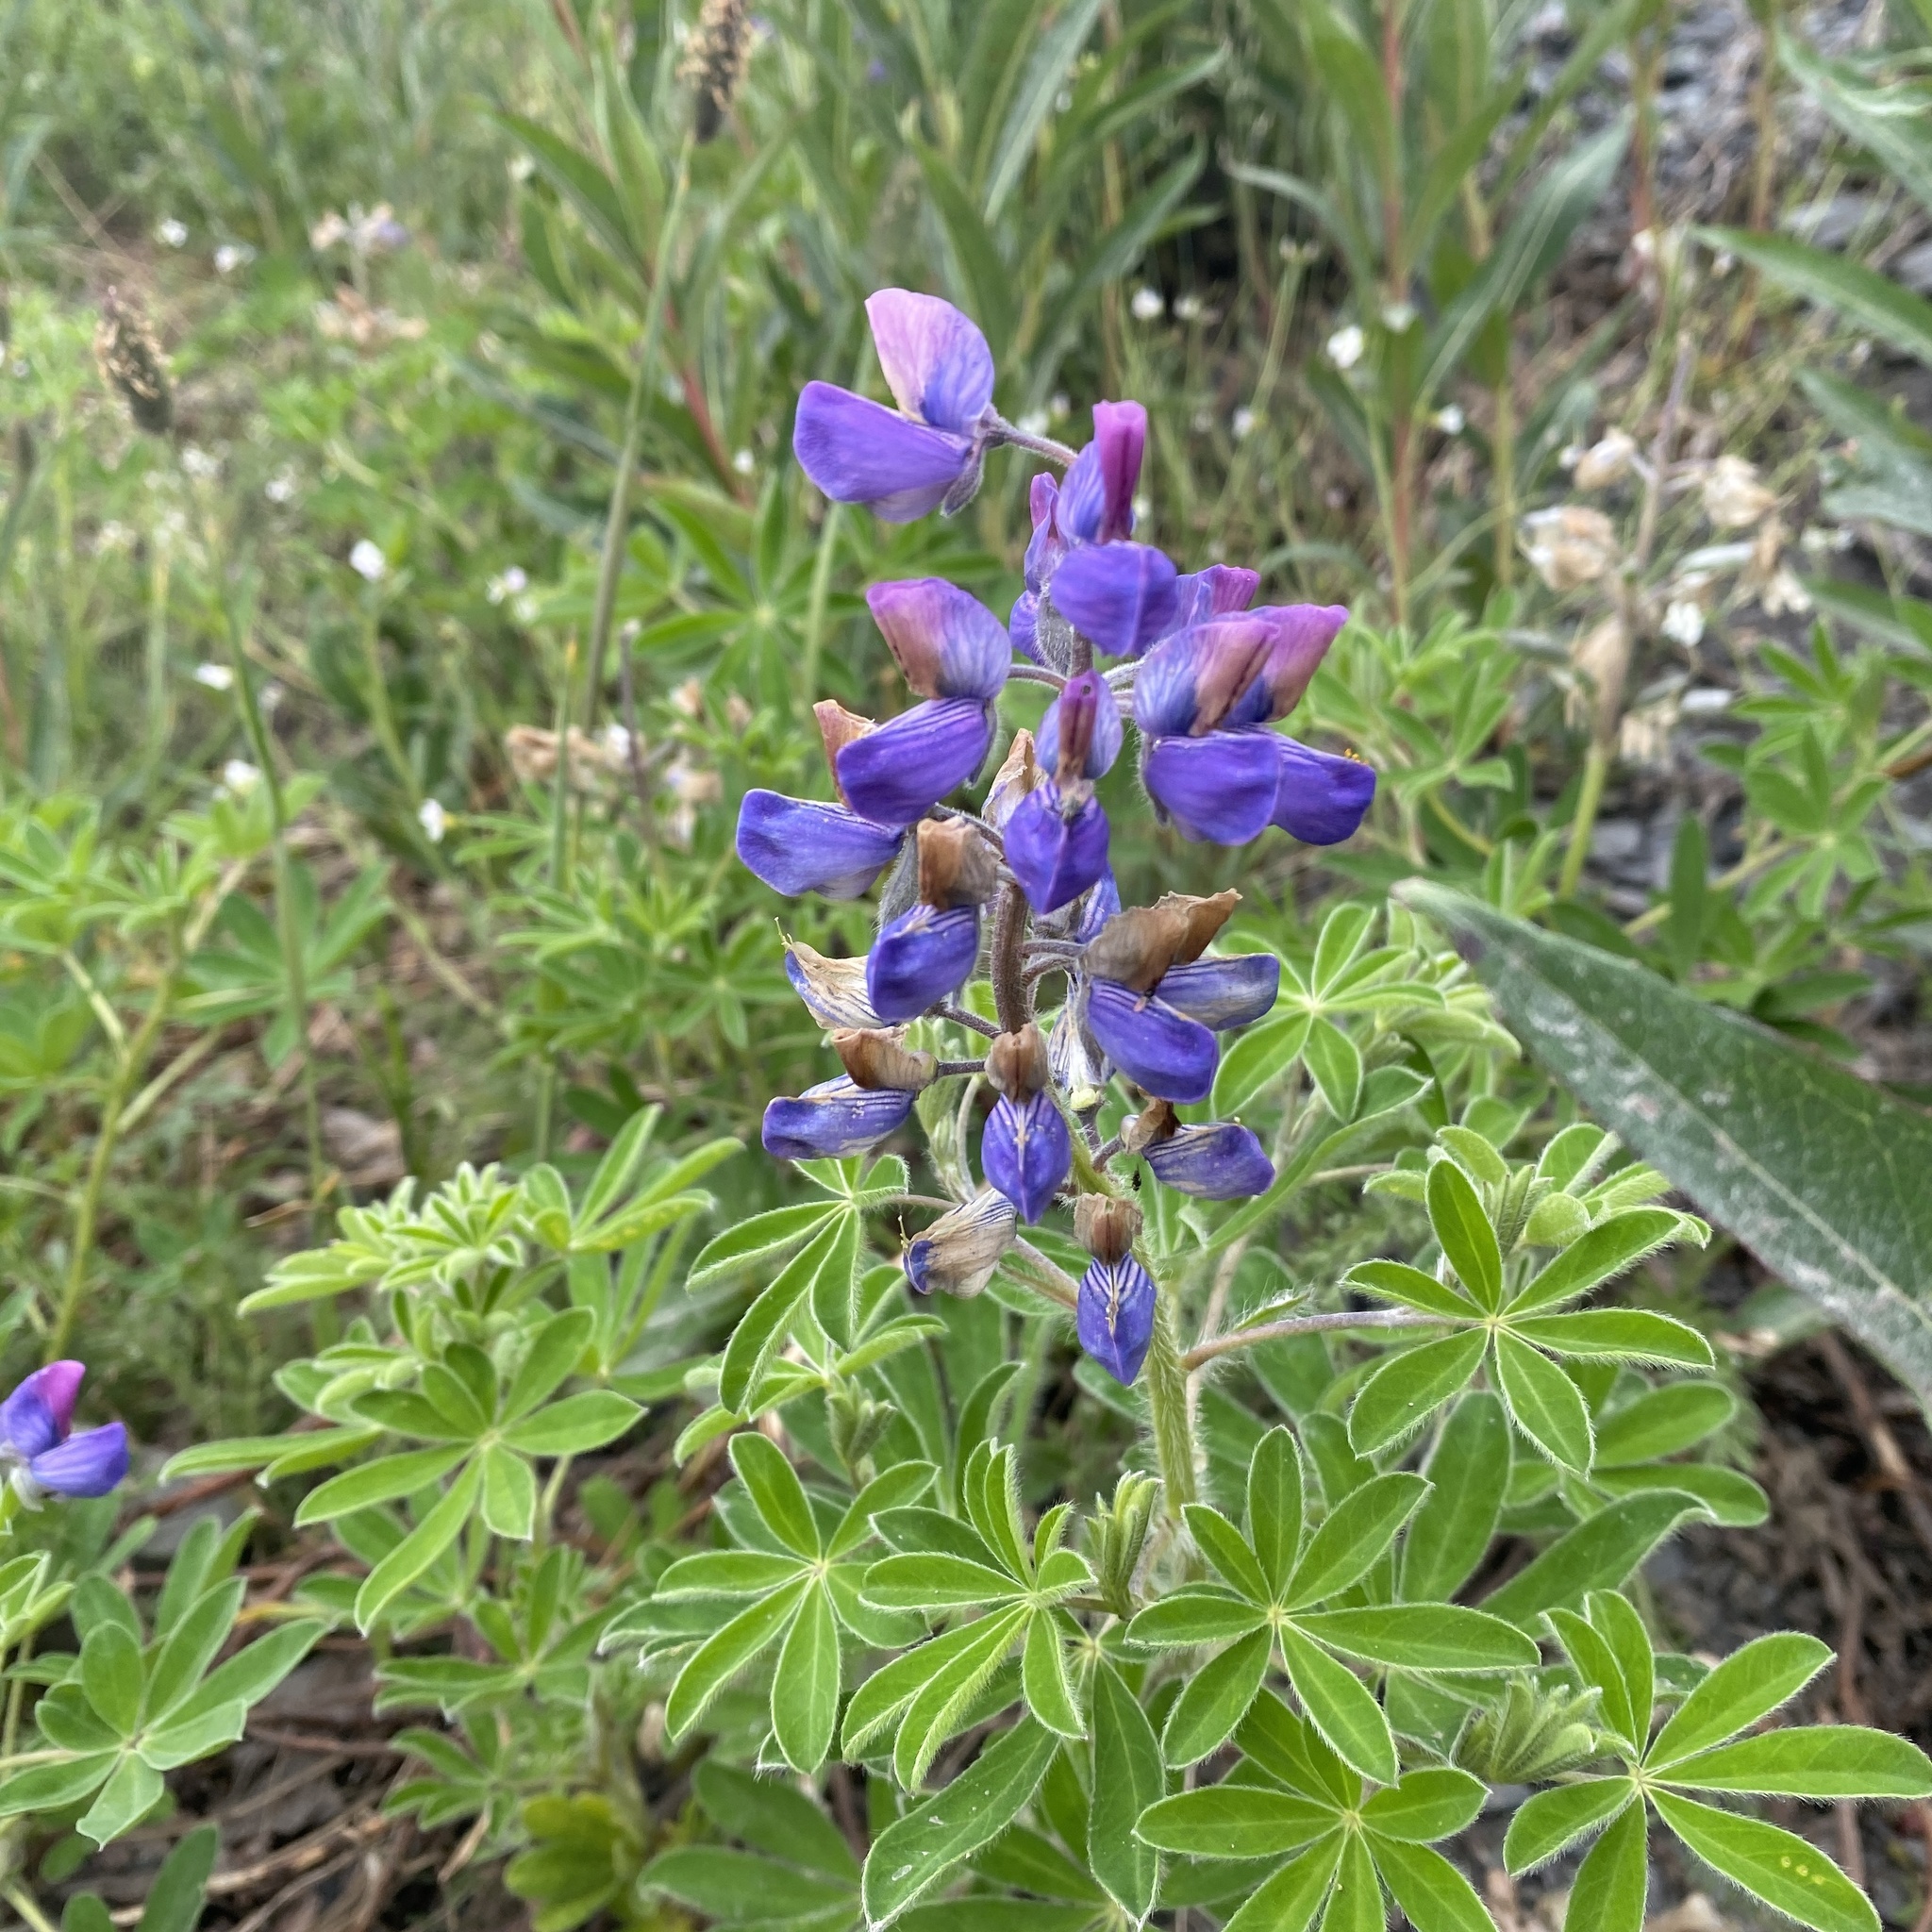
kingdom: Plantae
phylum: Tracheophyta
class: Magnoliopsida
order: Fabales
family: Fabaceae
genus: Lupinus
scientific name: Lupinus nootkatensis
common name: Nootka lupine
